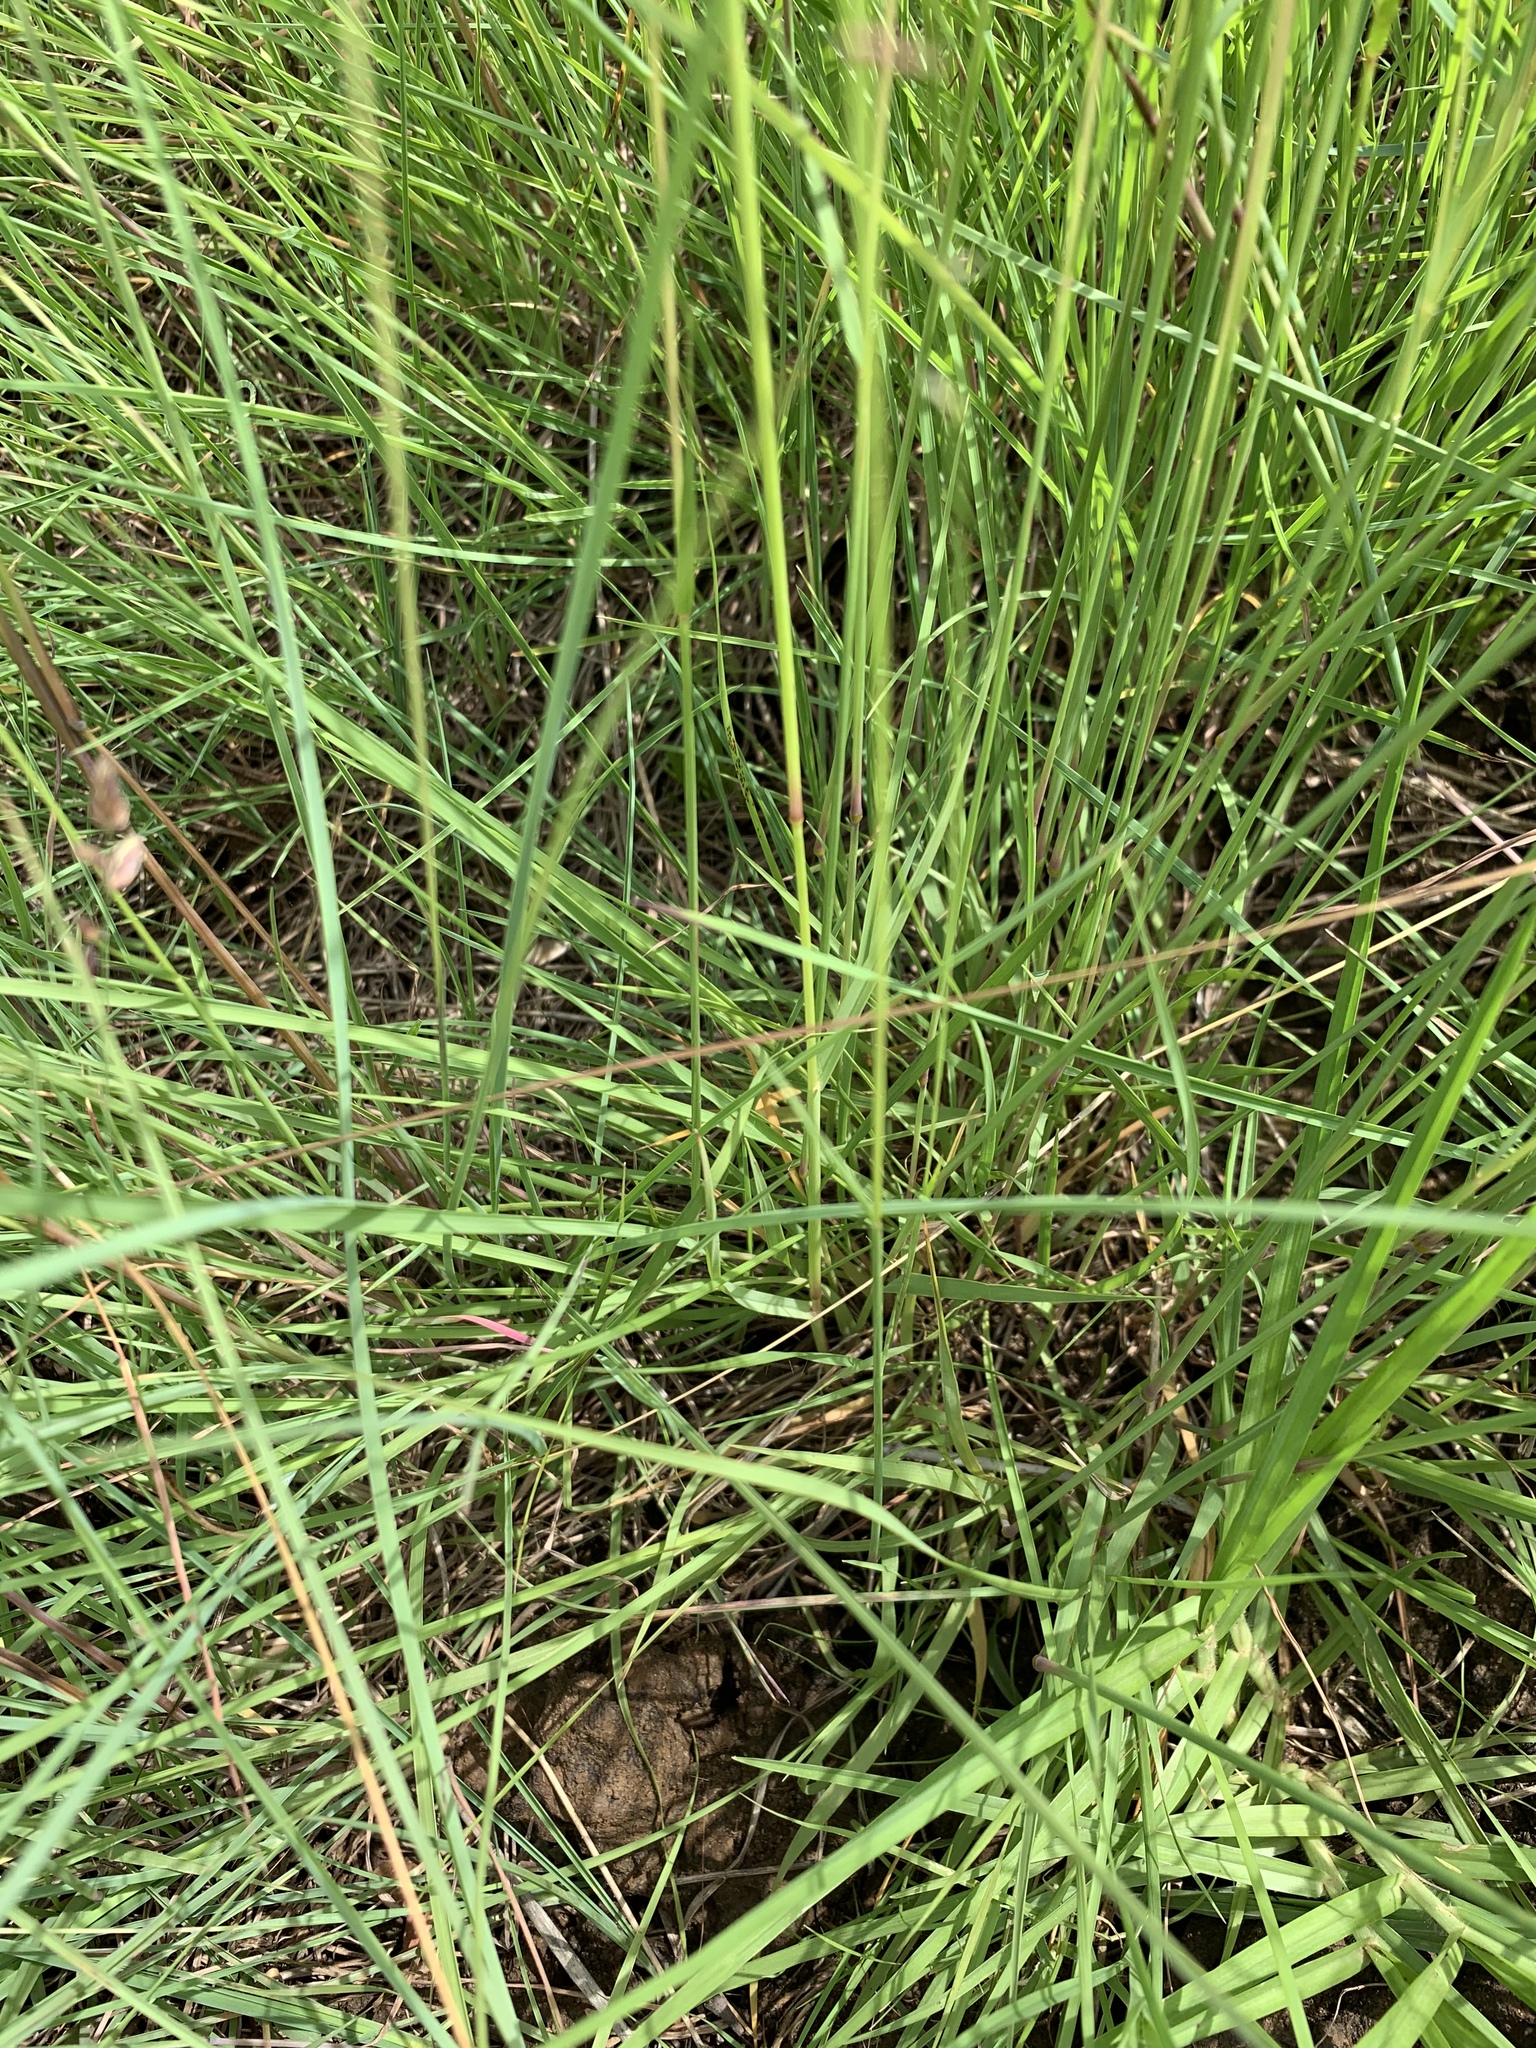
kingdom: Plantae
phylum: Tracheophyta
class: Liliopsida
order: Poales
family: Poaceae
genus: Eragrostis
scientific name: Eragrostis capensis
